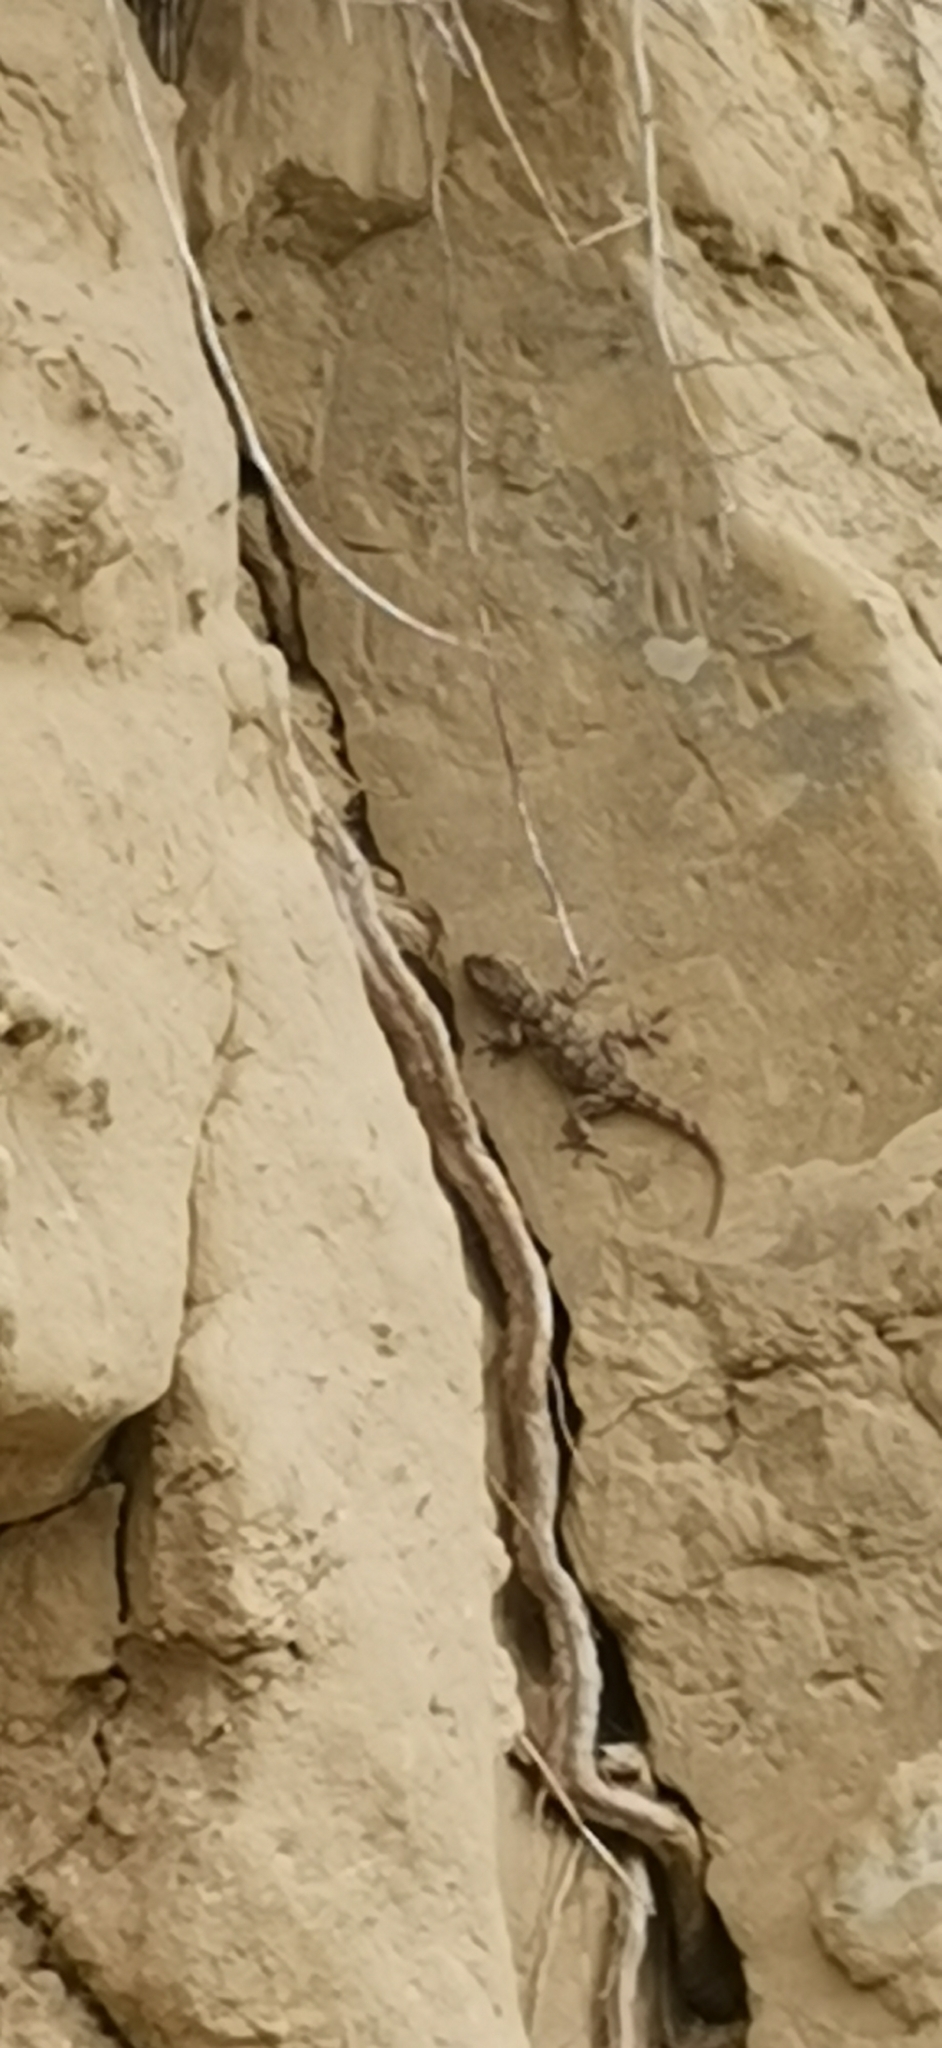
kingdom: Animalia
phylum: Chordata
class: Squamata
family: Phyllodactylidae
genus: Tarentola
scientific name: Tarentola mauritanica
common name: Moorish gecko
